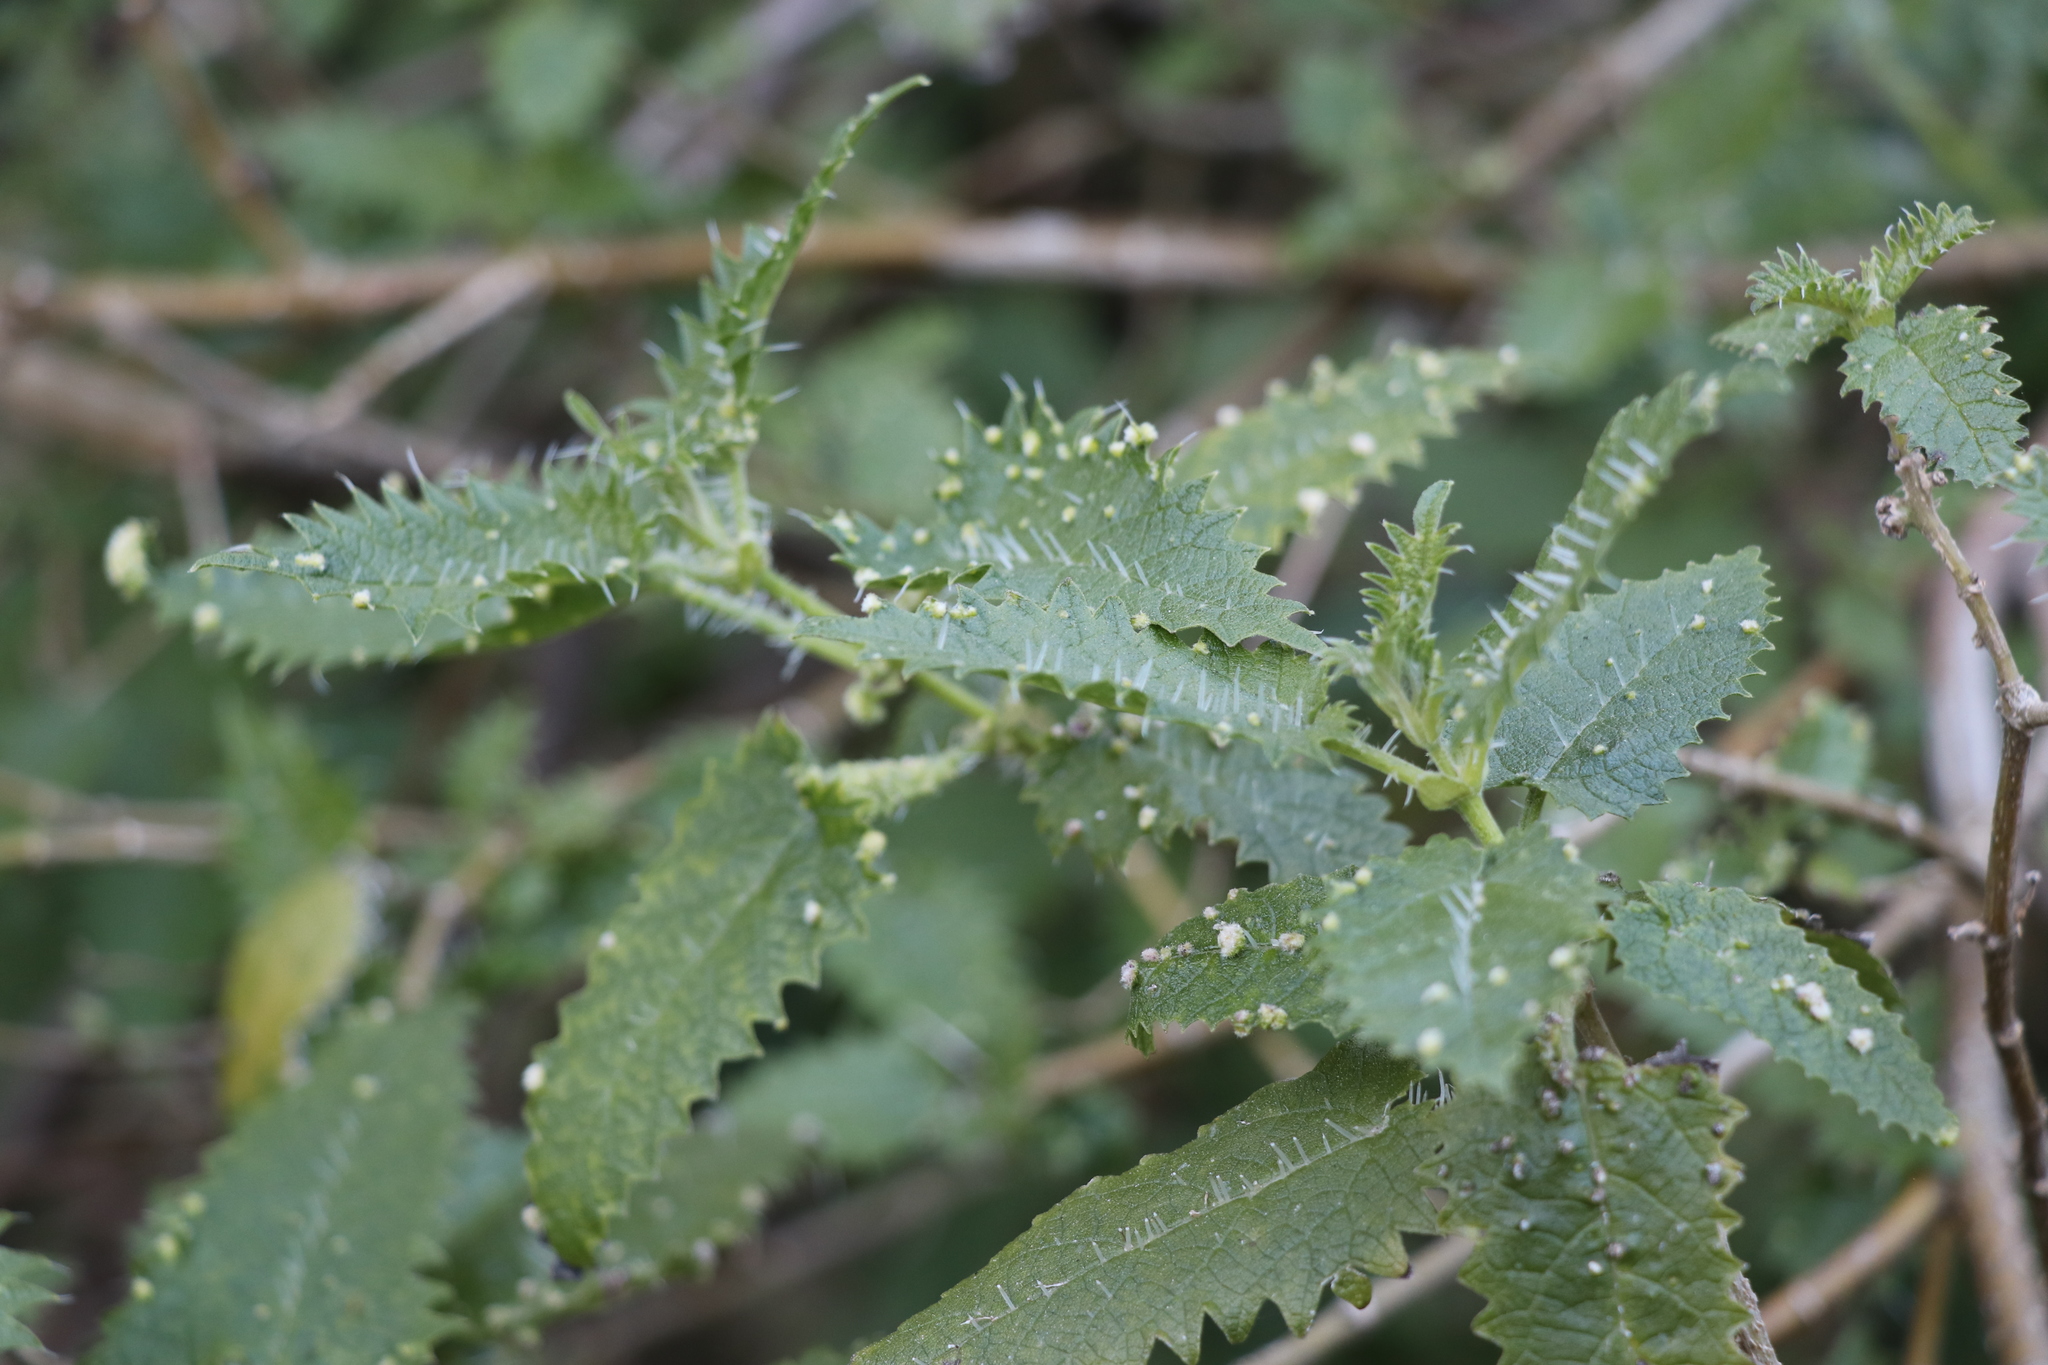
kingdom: Plantae
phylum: Tracheophyta
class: Magnoliopsida
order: Rosales
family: Urticaceae
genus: Urtica
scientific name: Urtica ferox
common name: Tree nettle
